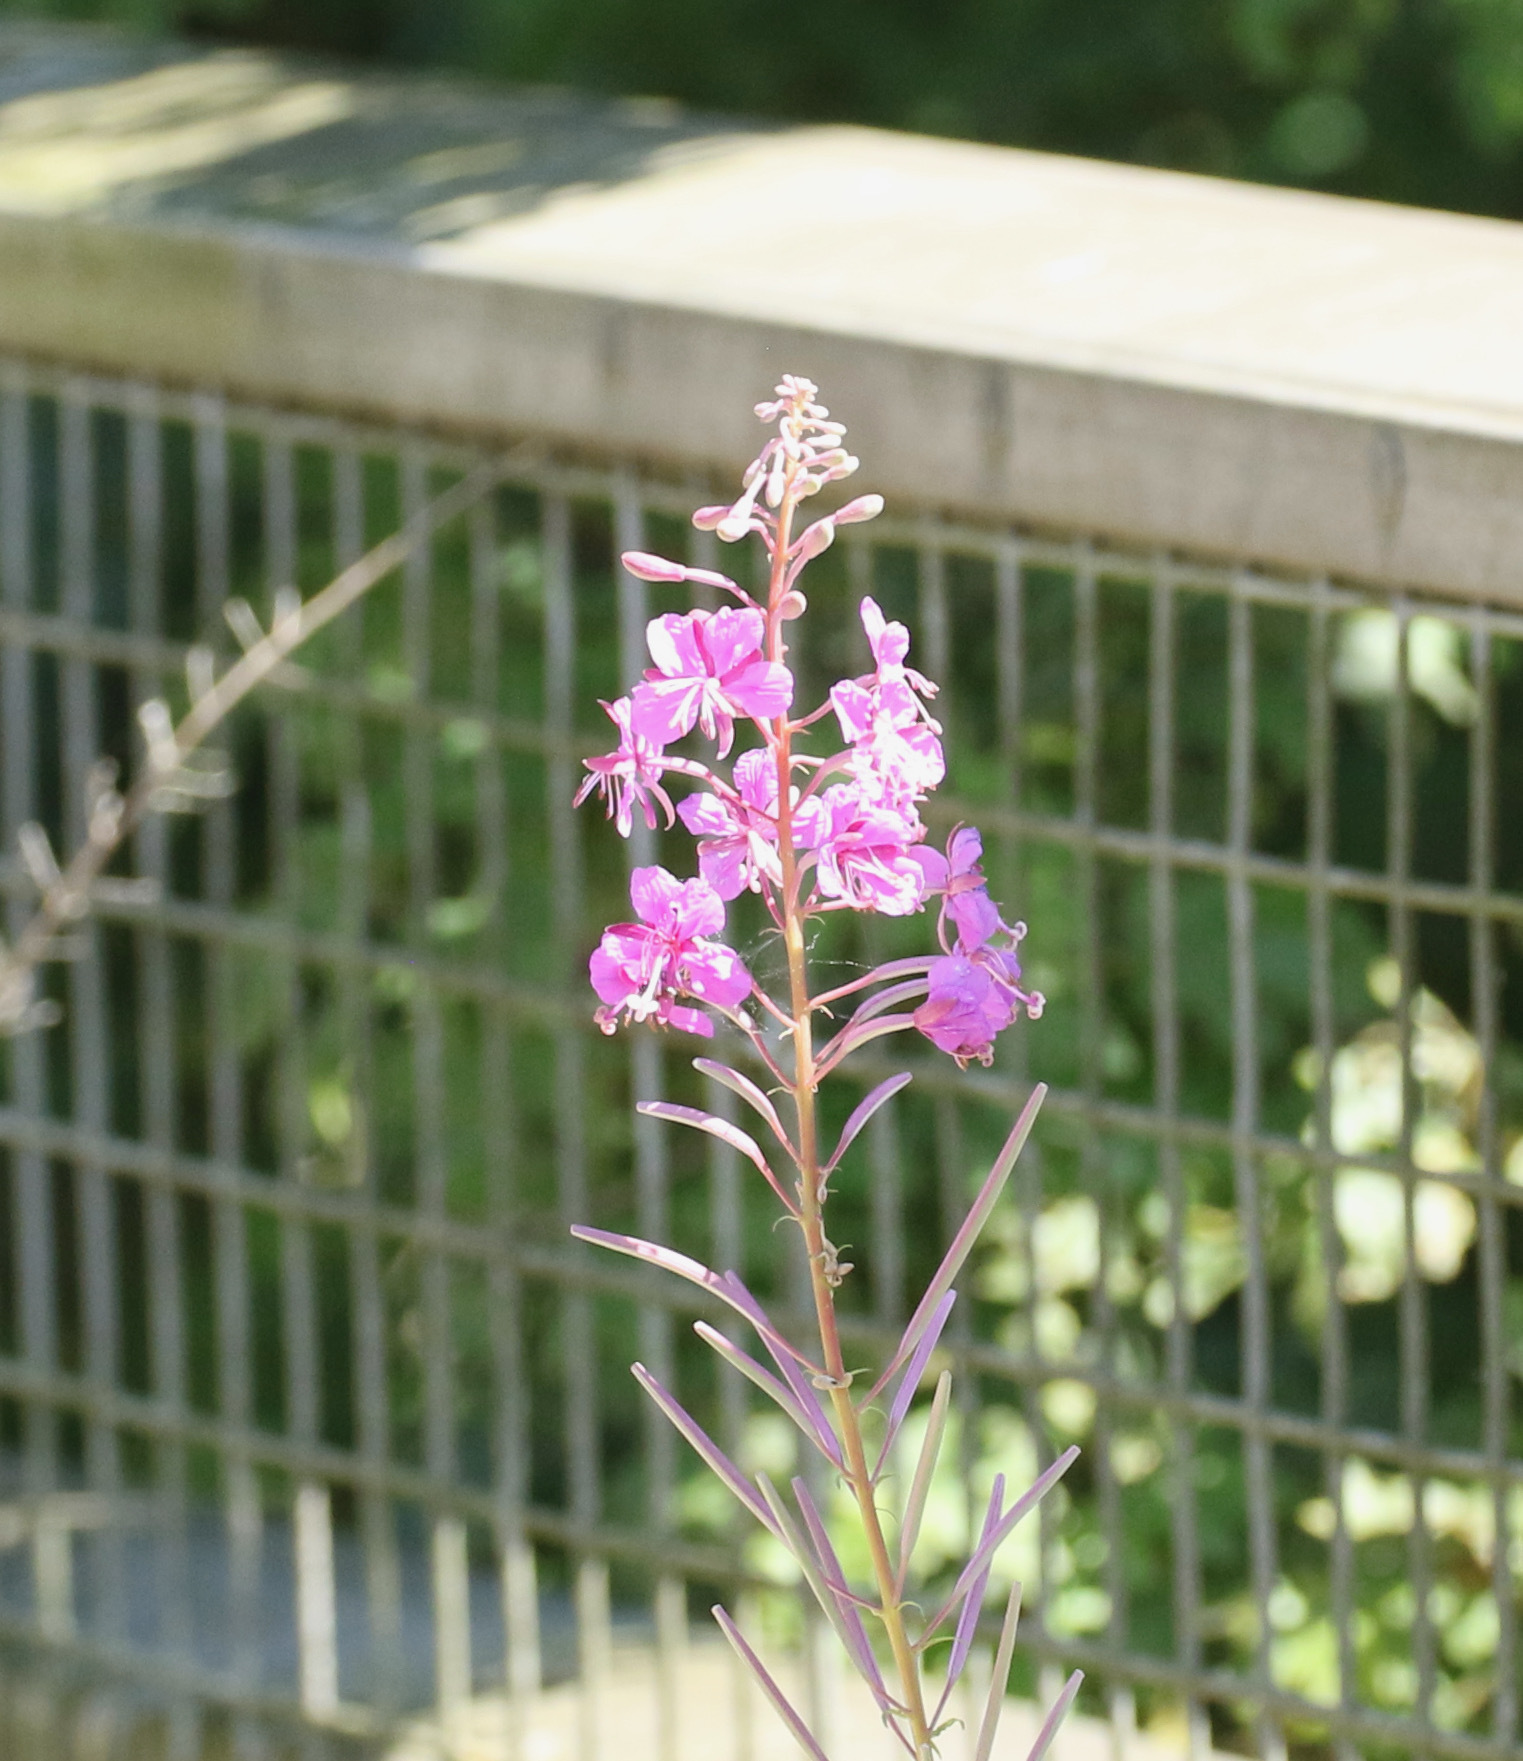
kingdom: Plantae
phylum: Tracheophyta
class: Magnoliopsida
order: Myrtales
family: Onagraceae
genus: Chamaenerion
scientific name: Chamaenerion angustifolium
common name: Fireweed
